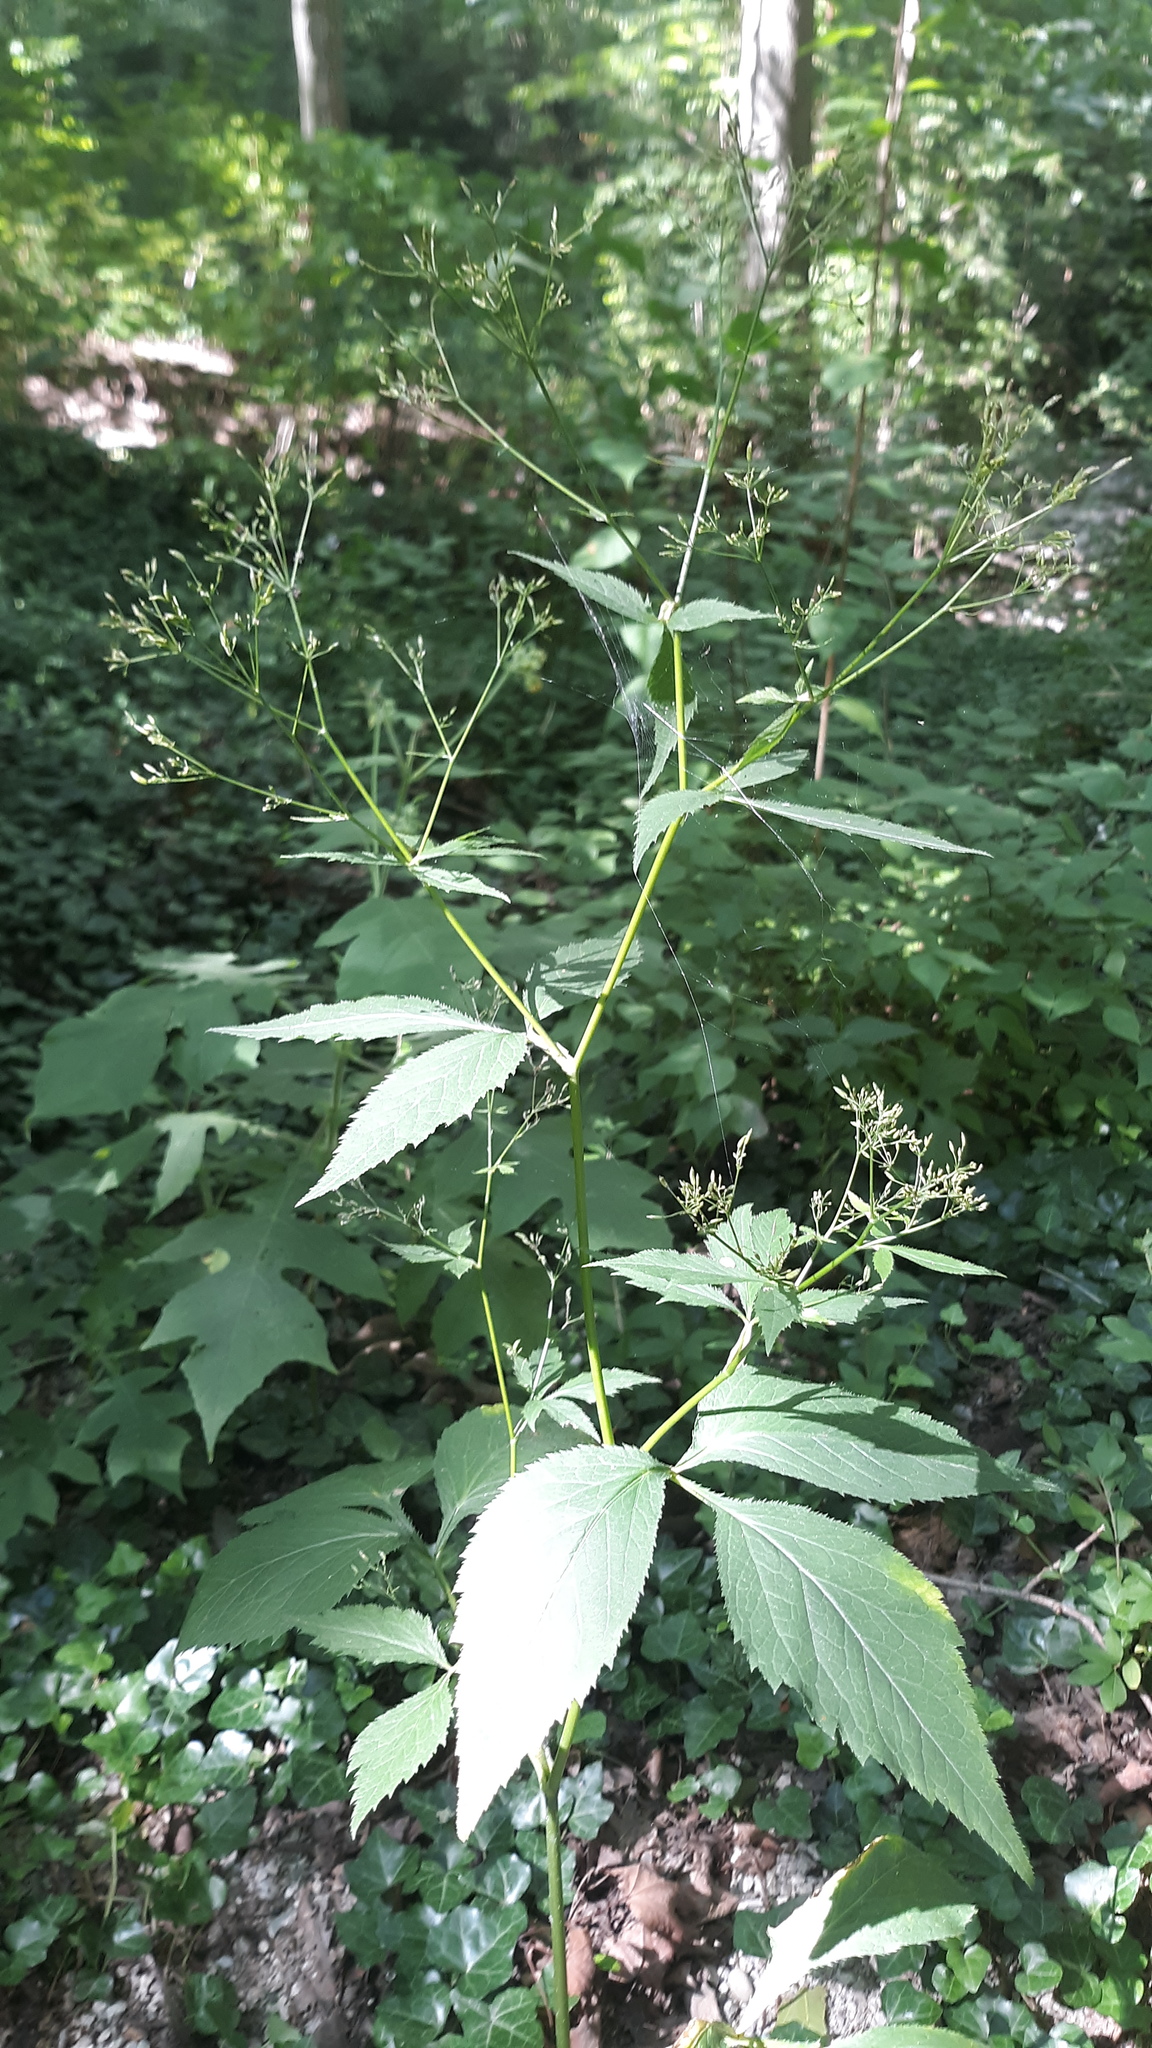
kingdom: Plantae
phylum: Tracheophyta
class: Magnoliopsida
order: Apiales
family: Apiaceae
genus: Cryptotaenia
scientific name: Cryptotaenia canadensis
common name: Honewort
